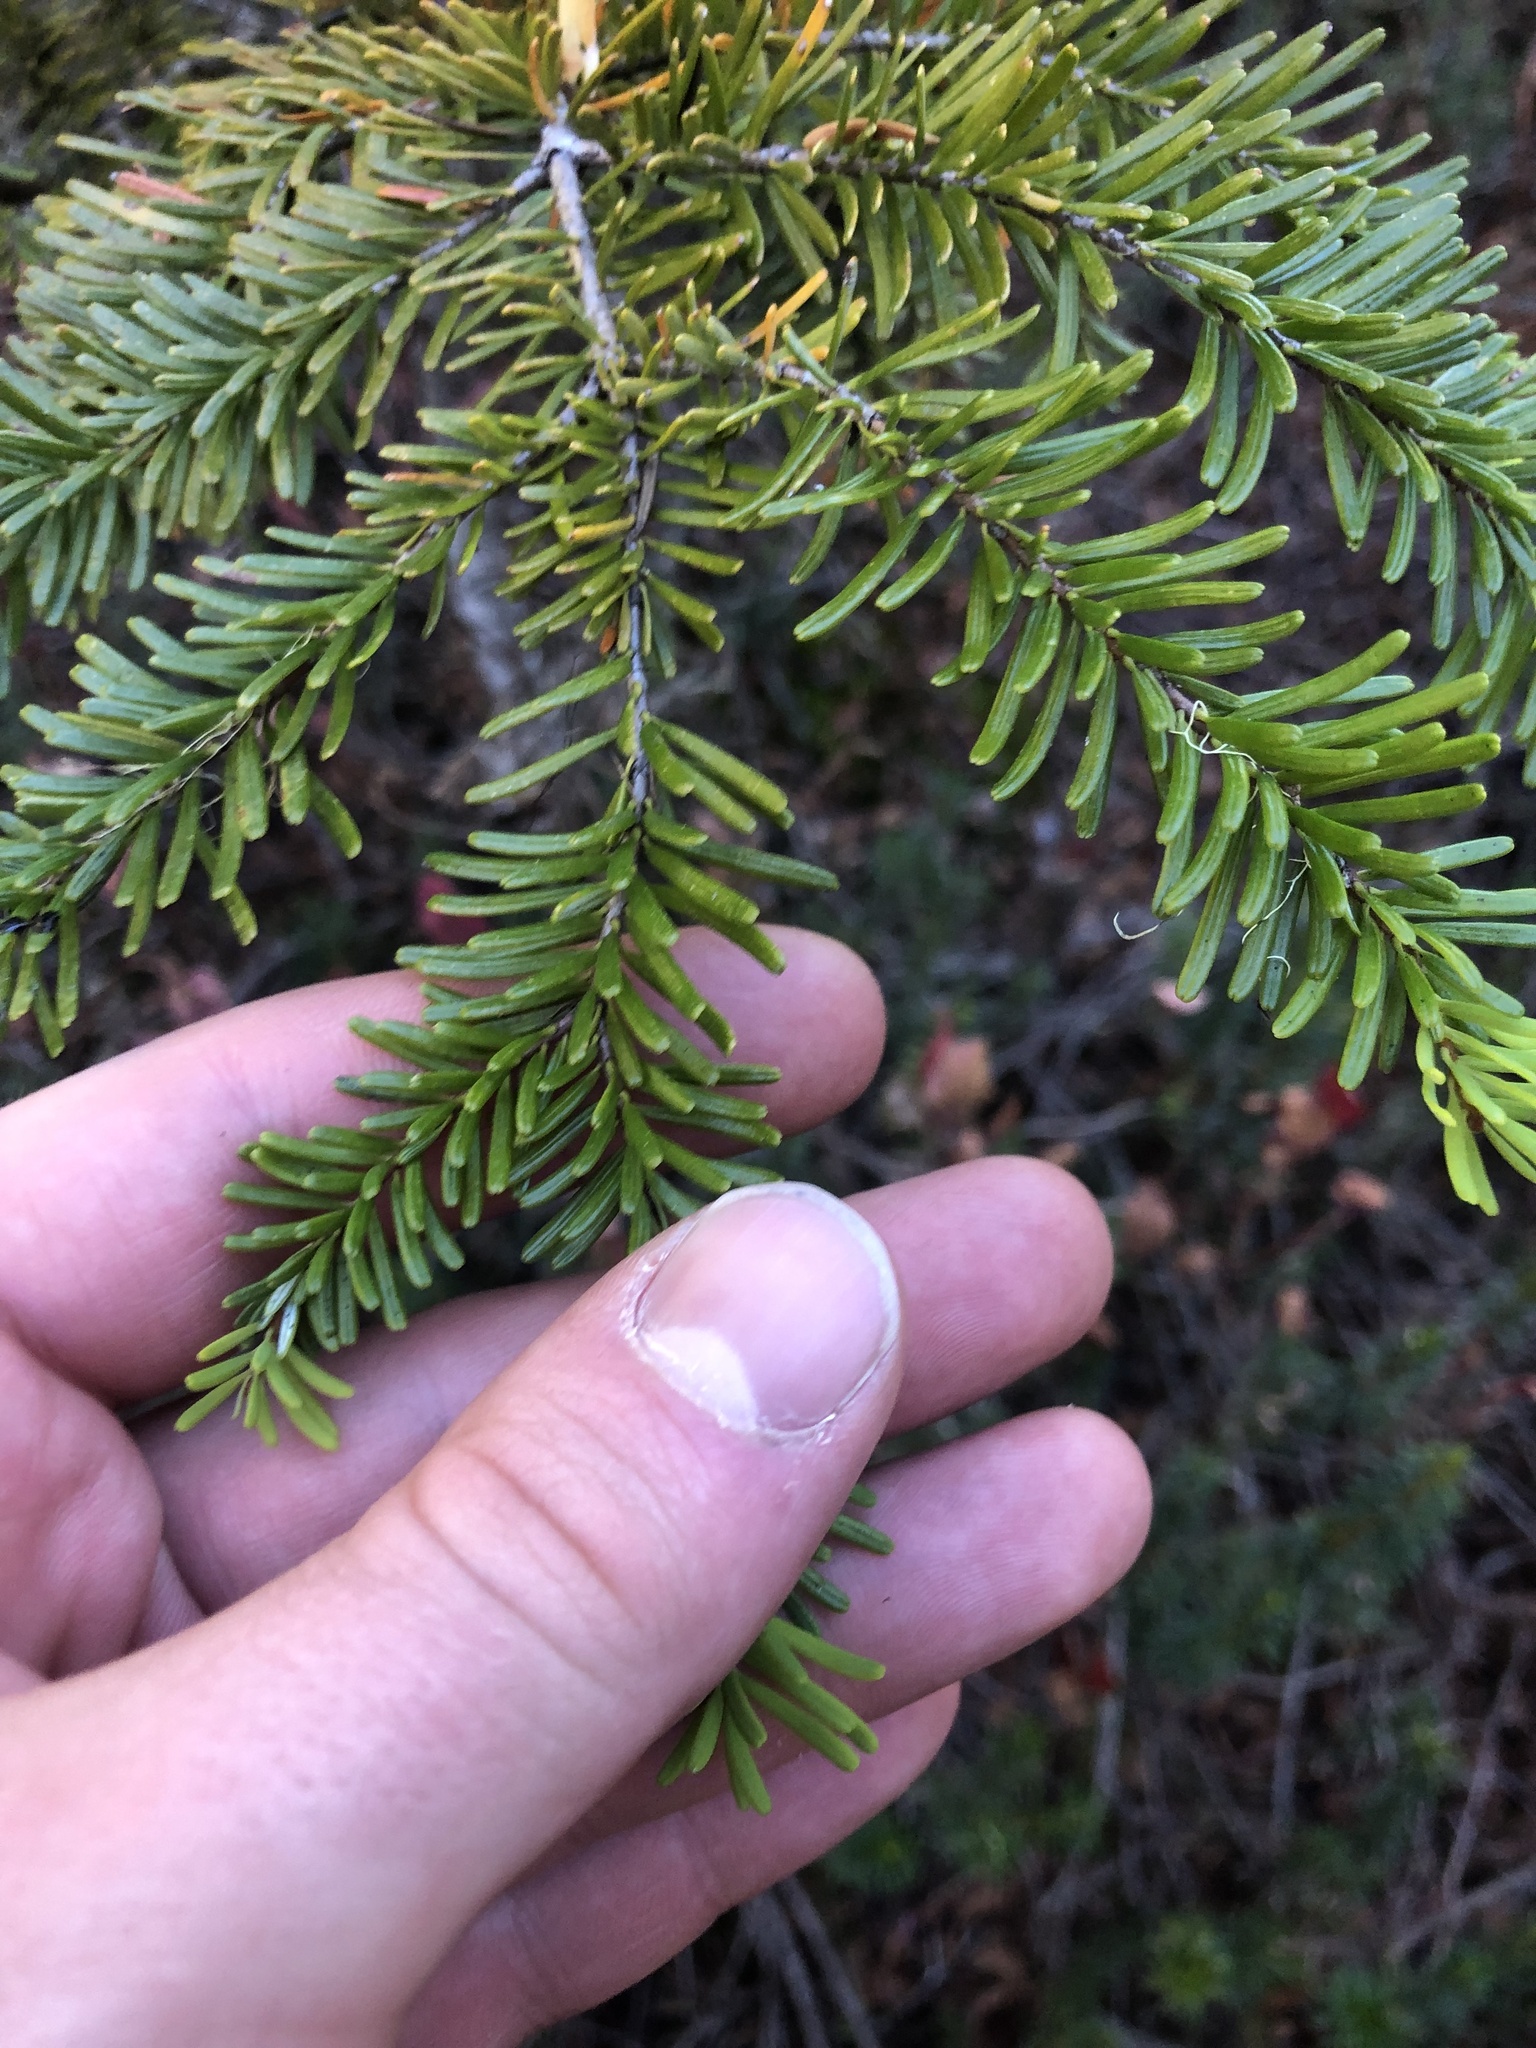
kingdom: Plantae
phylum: Tracheophyta
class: Pinopsida
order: Pinales
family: Pinaceae
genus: Abies
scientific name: Abies amabilis
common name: Pacific silver fir
